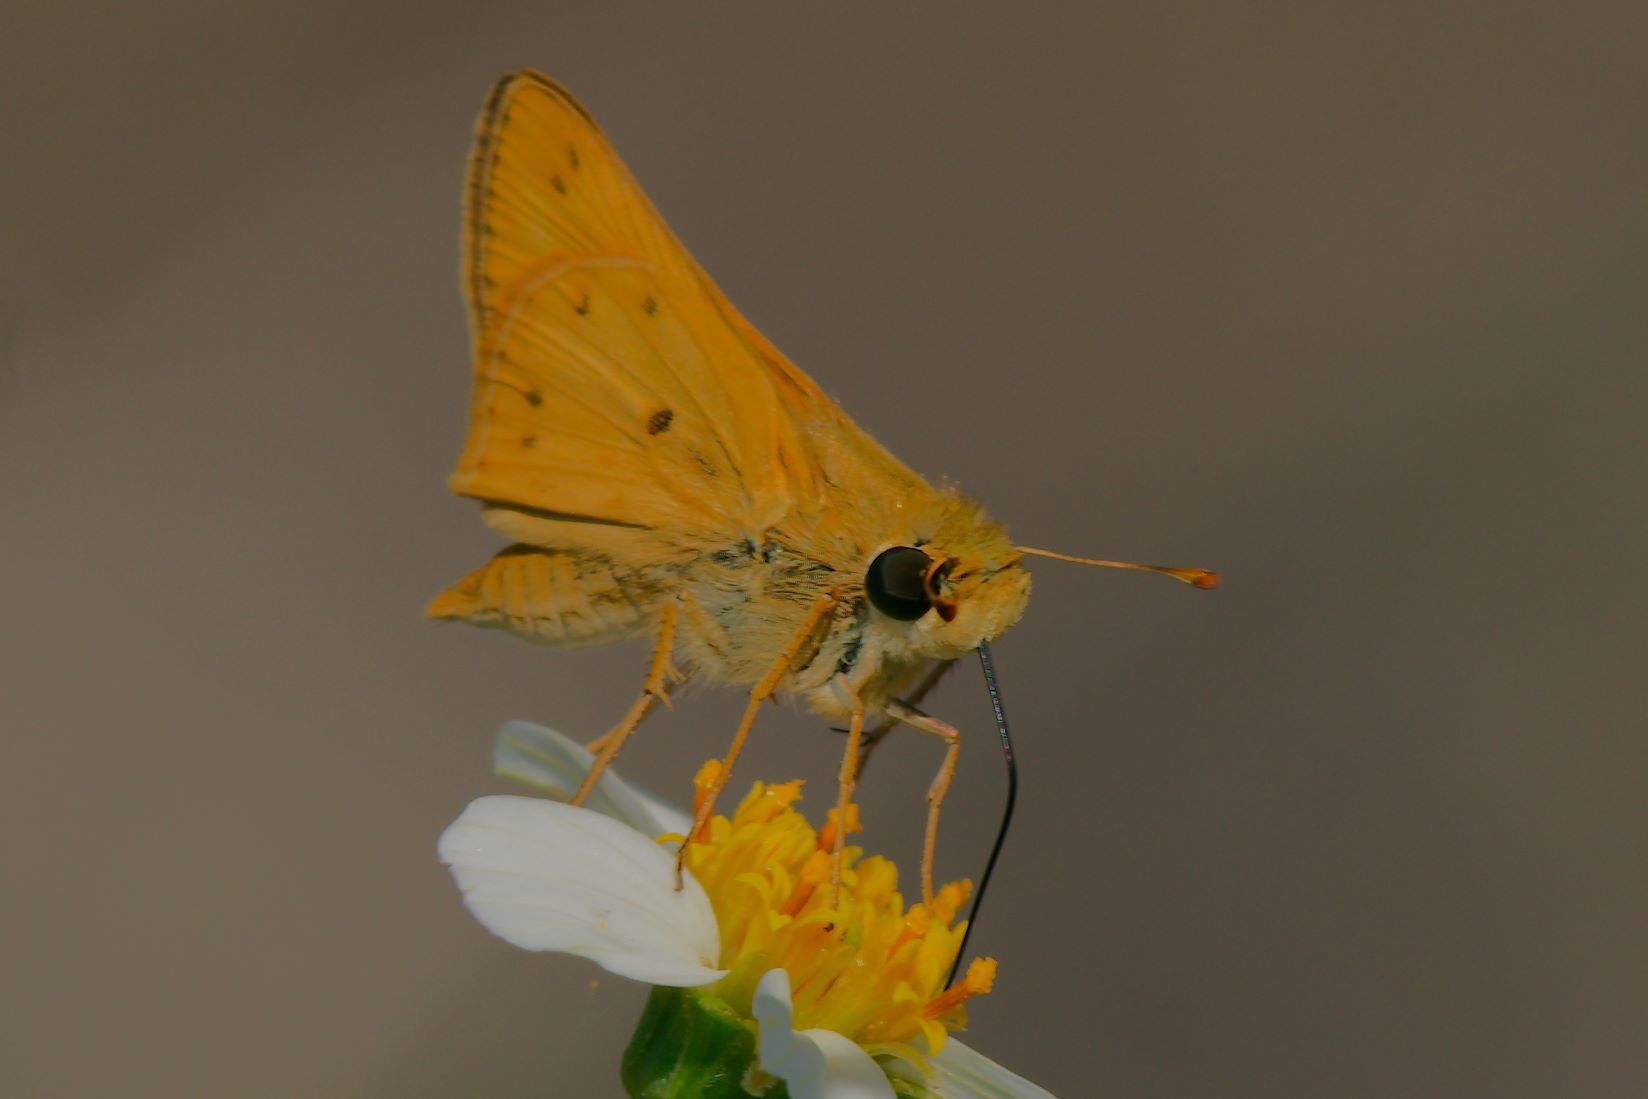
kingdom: Animalia
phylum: Arthropoda
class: Insecta
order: Lepidoptera
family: Hesperiidae
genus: Hylephila
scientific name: Hylephila phyleus
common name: Fiery skipper
